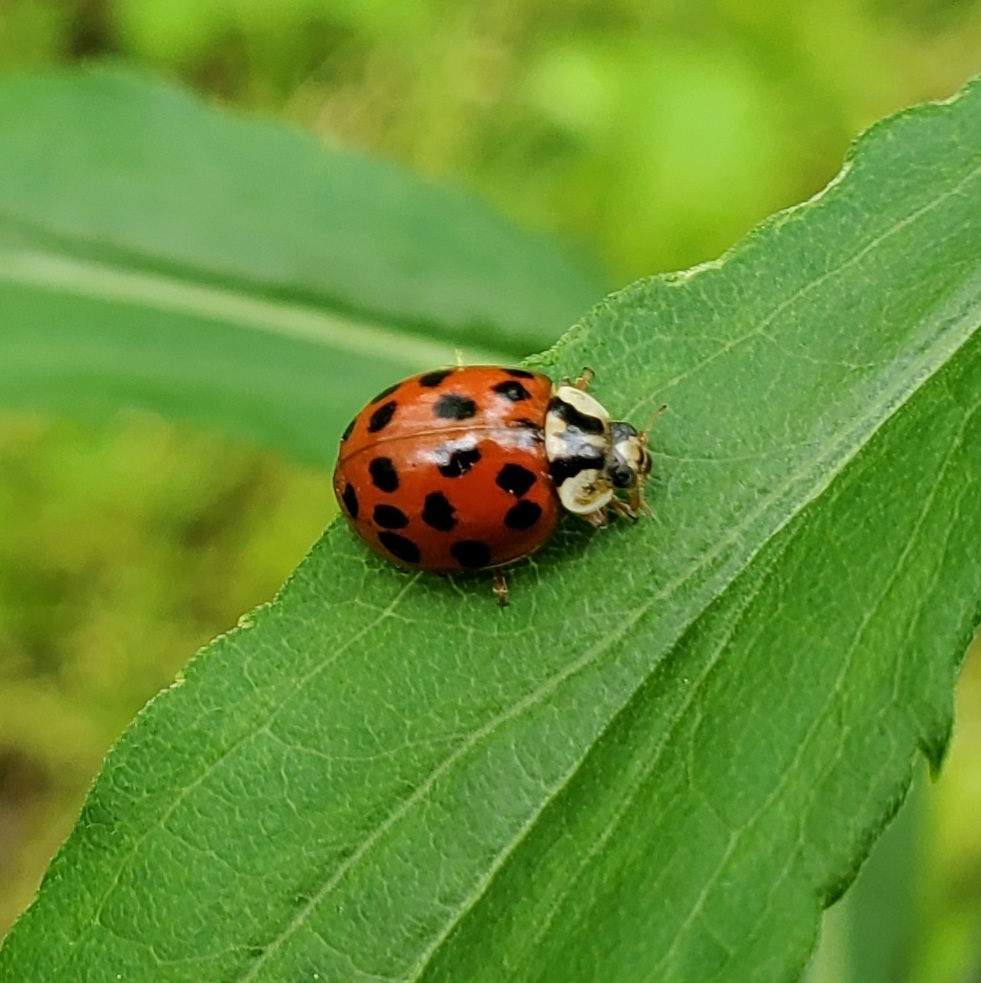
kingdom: Animalia
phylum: Arthropoda
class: Insecta
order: Coleoptera
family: Coccinellidae
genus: Harmonia
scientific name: Harmonia axyridis
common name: Harlequin ladybird
